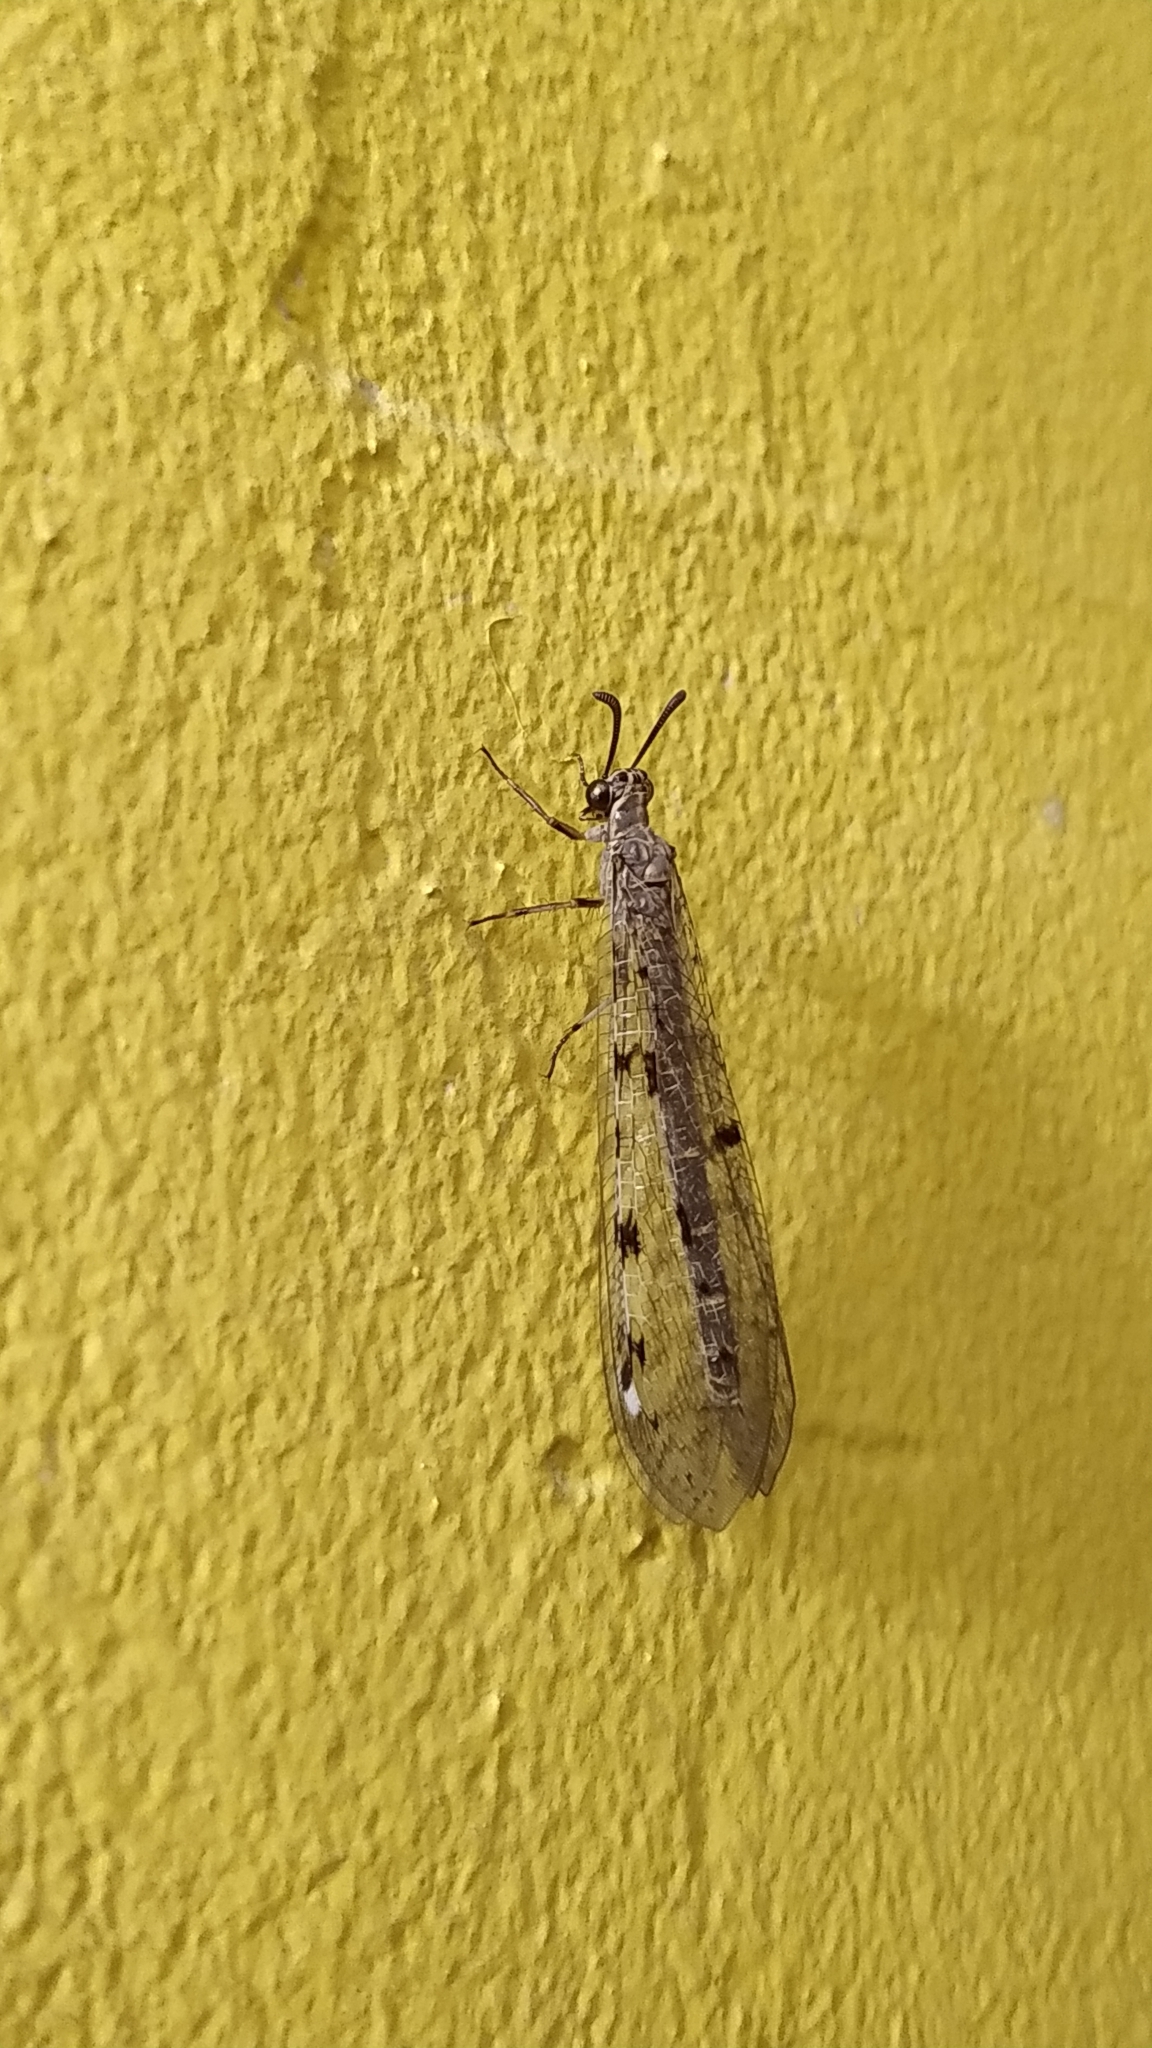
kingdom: Animalia
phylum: Arthropoda
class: Insecta
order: Neuroptera
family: Myrmeleontidae
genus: Euroleon
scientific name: Euroleon nostras
